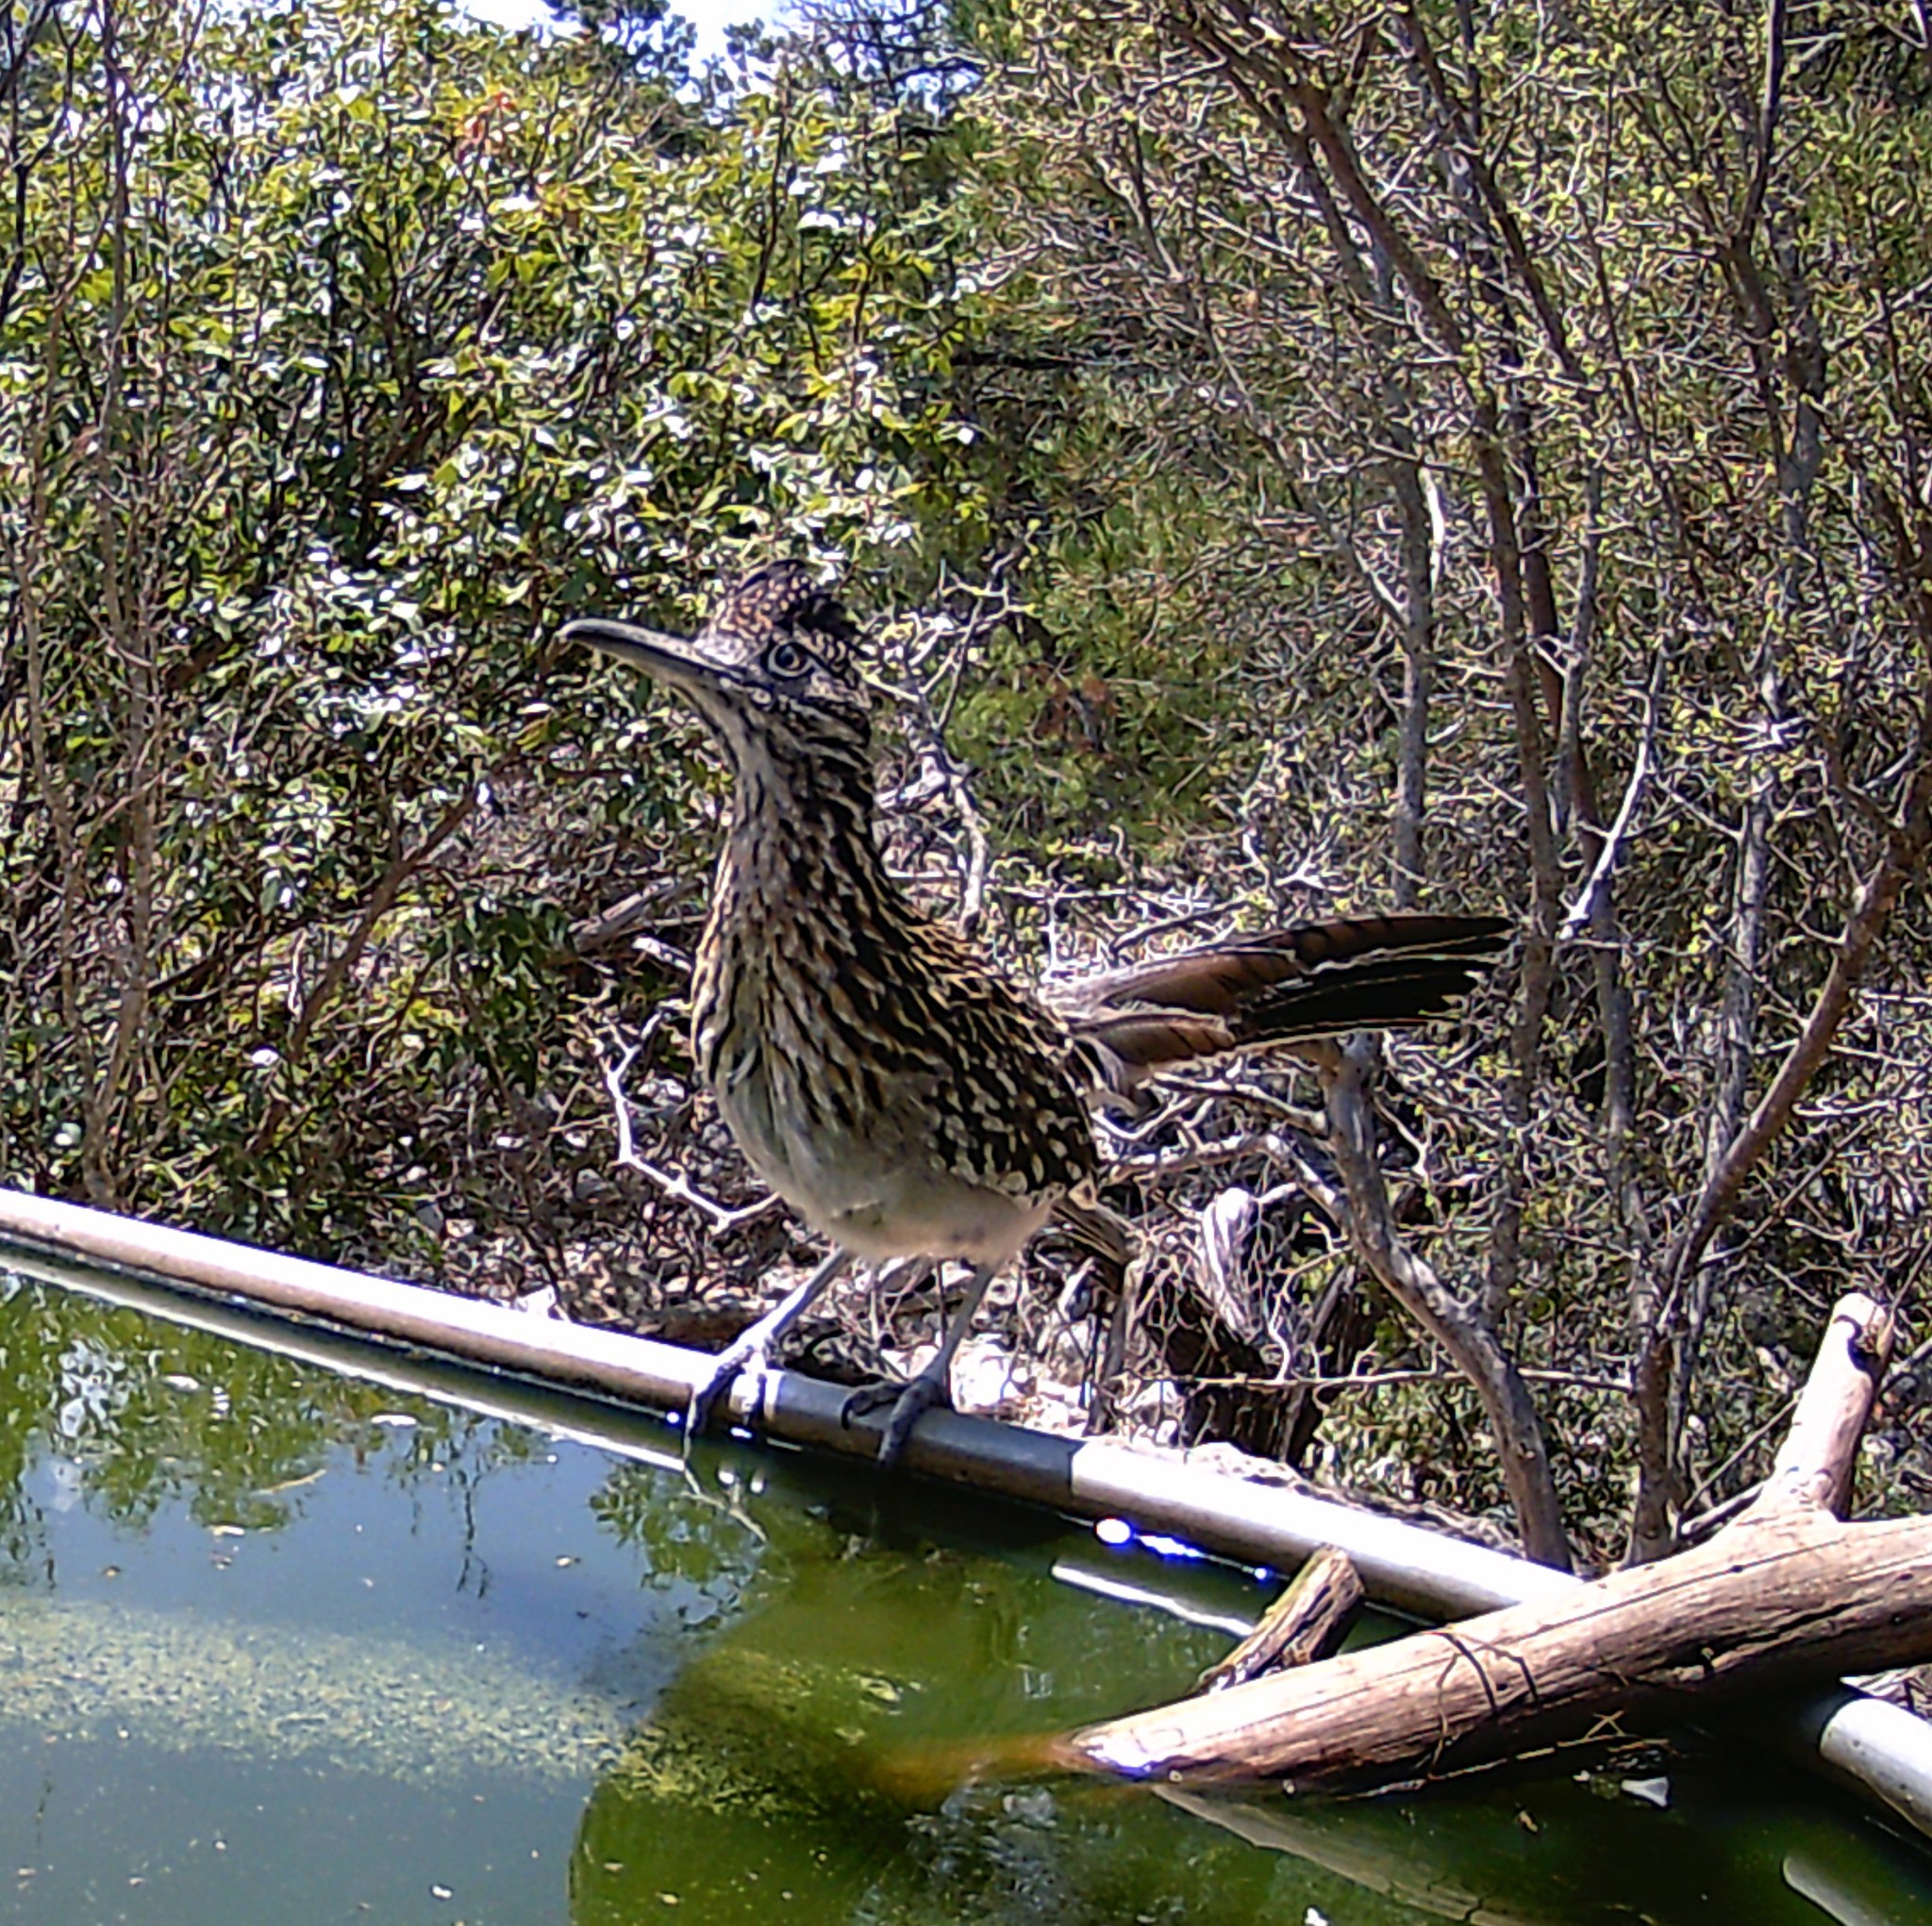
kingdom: Animalia
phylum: Chordata
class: Aves
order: Cuculiformes
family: Cuculidae
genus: Geococcyx
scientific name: Geococcyx californianus
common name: Greater roadrunner
